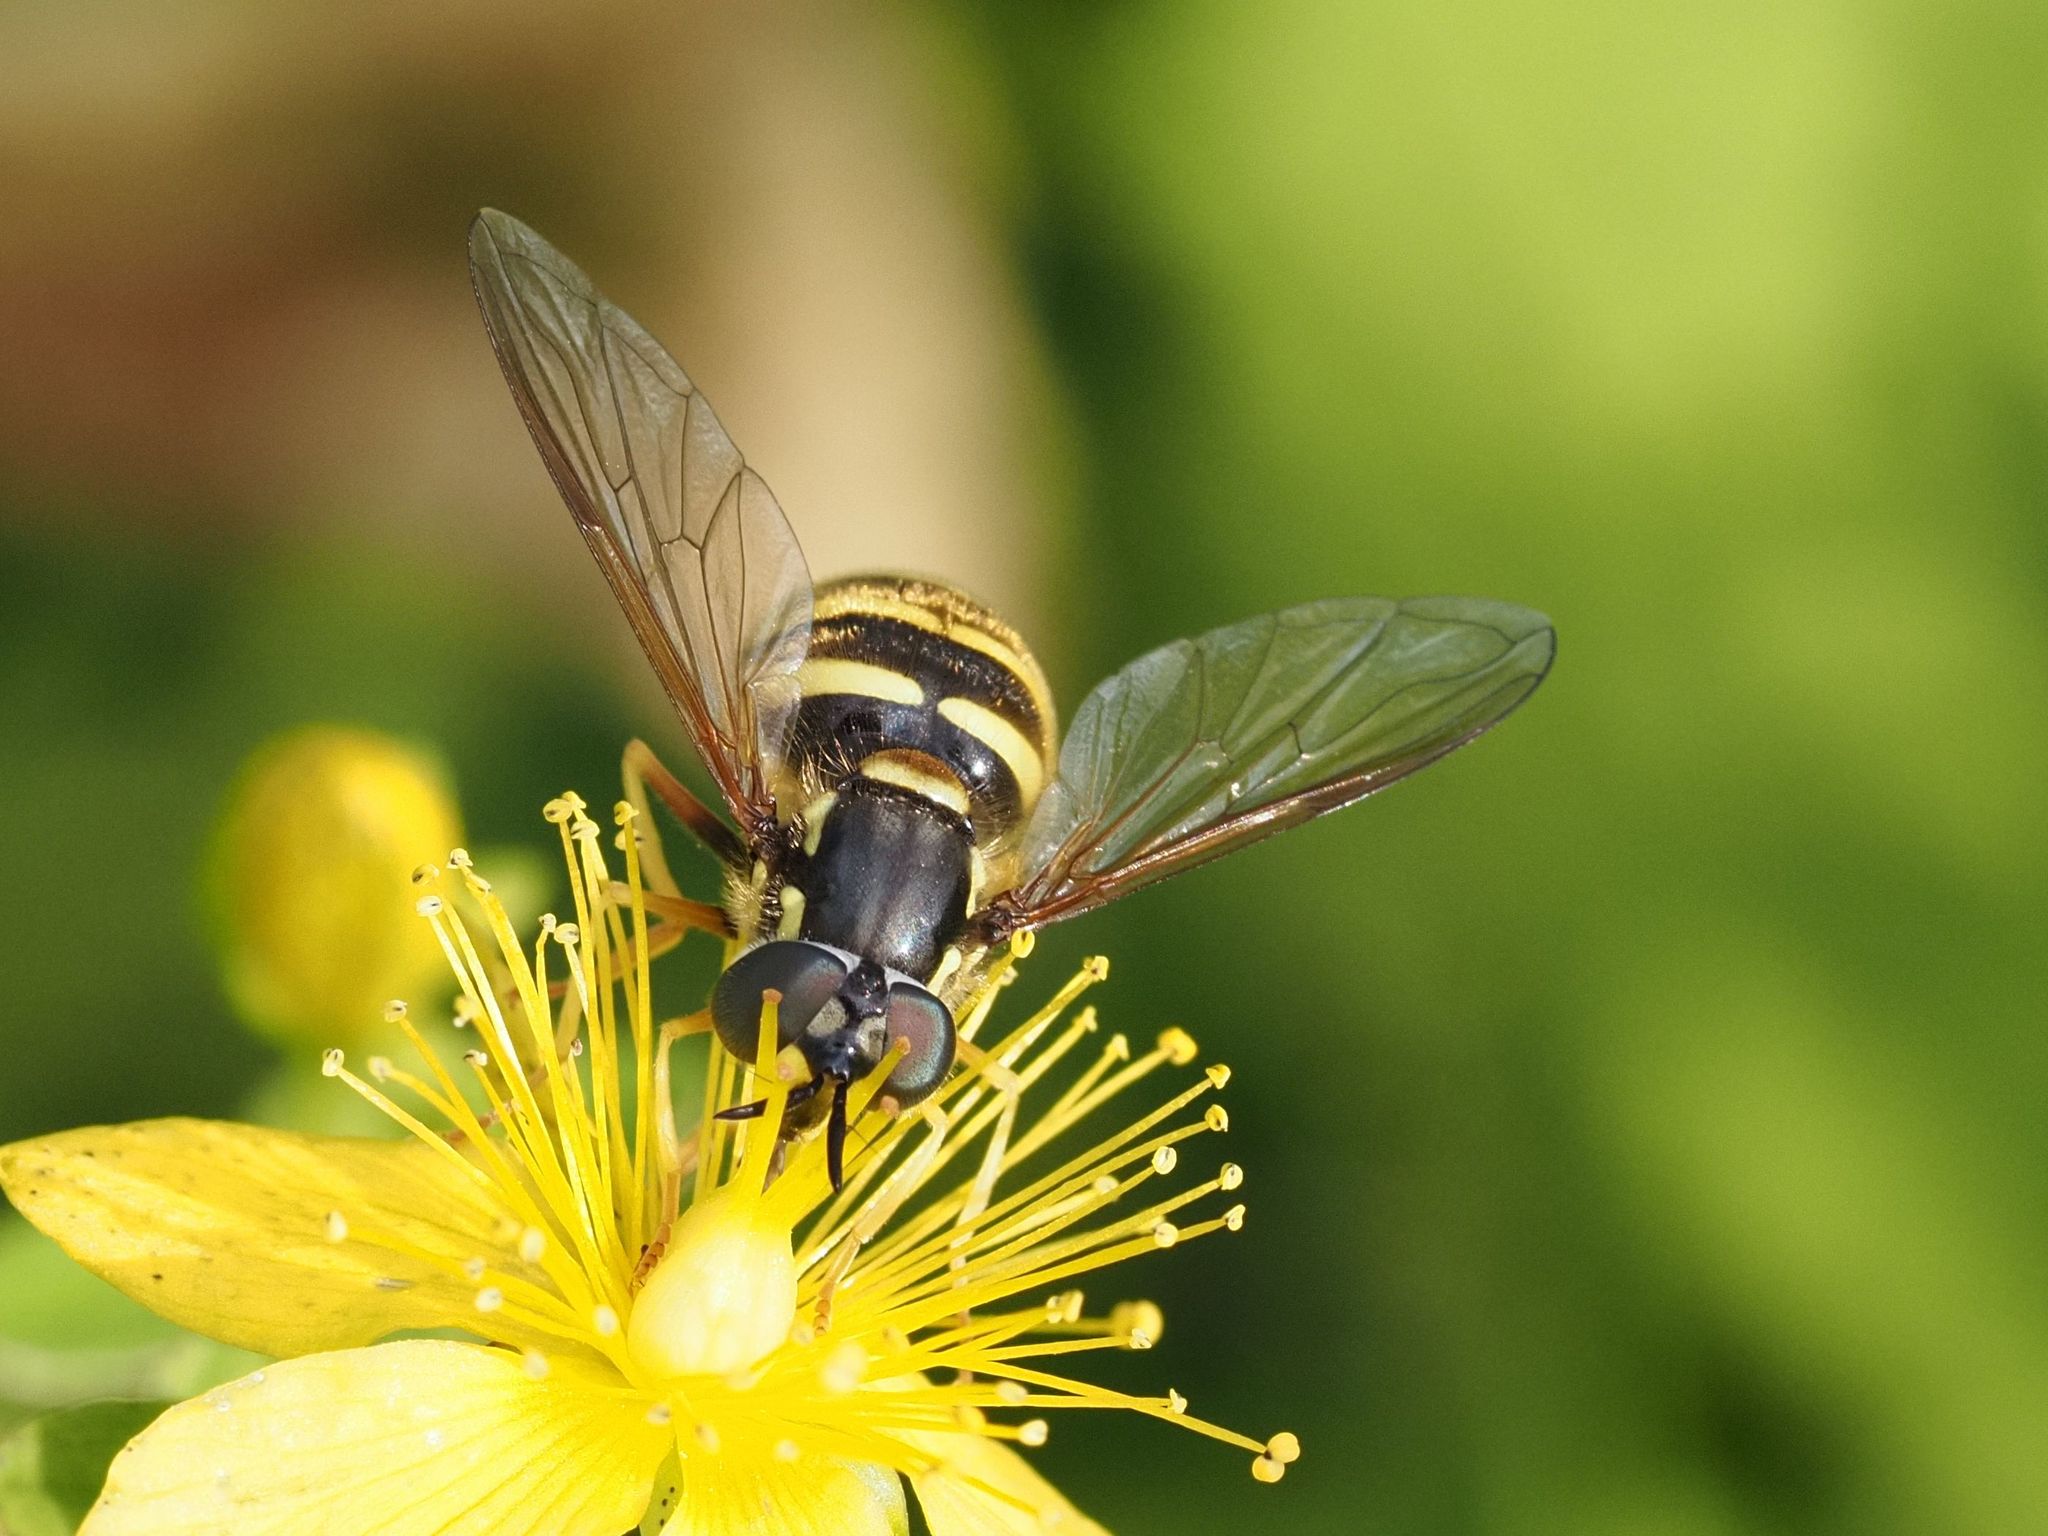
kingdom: Animalia
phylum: Arthropoda
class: Insecta
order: Diptera
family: Syrphidae
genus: Chrysotoxum
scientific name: Chrysotoxum arcuatum
